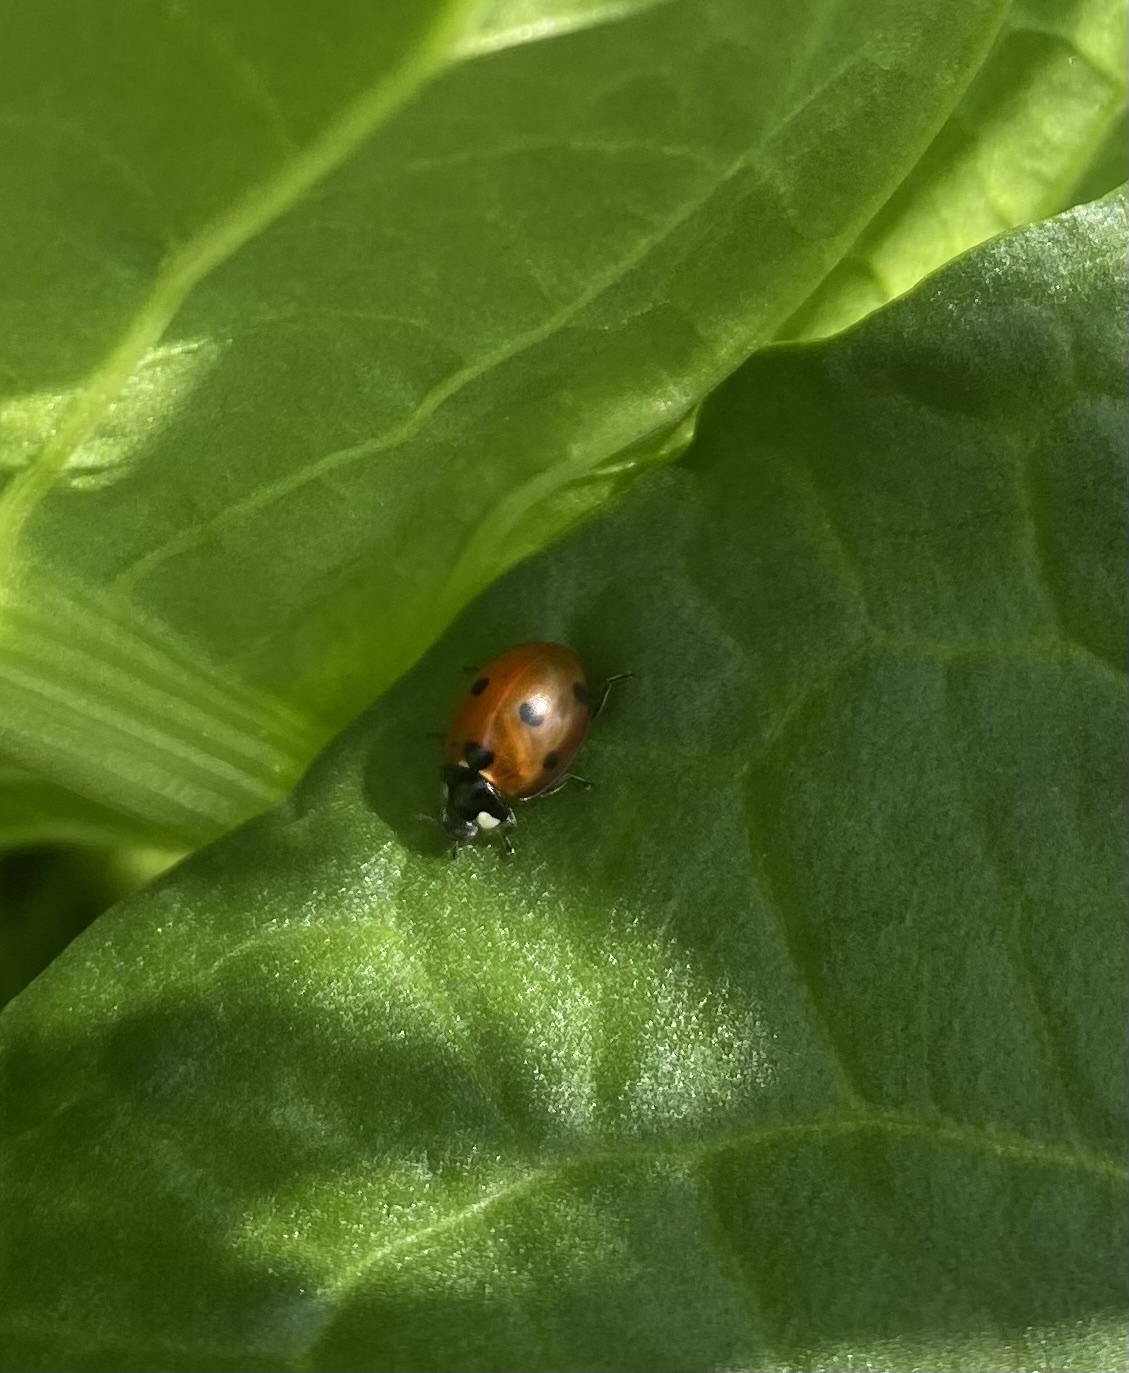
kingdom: Animalia
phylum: Arthropoda
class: Insecta
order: Coleoptera
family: Coccinellidae
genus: Coccinella
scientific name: Coccinella septempunctata
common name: Sevenspotted lady beetle
